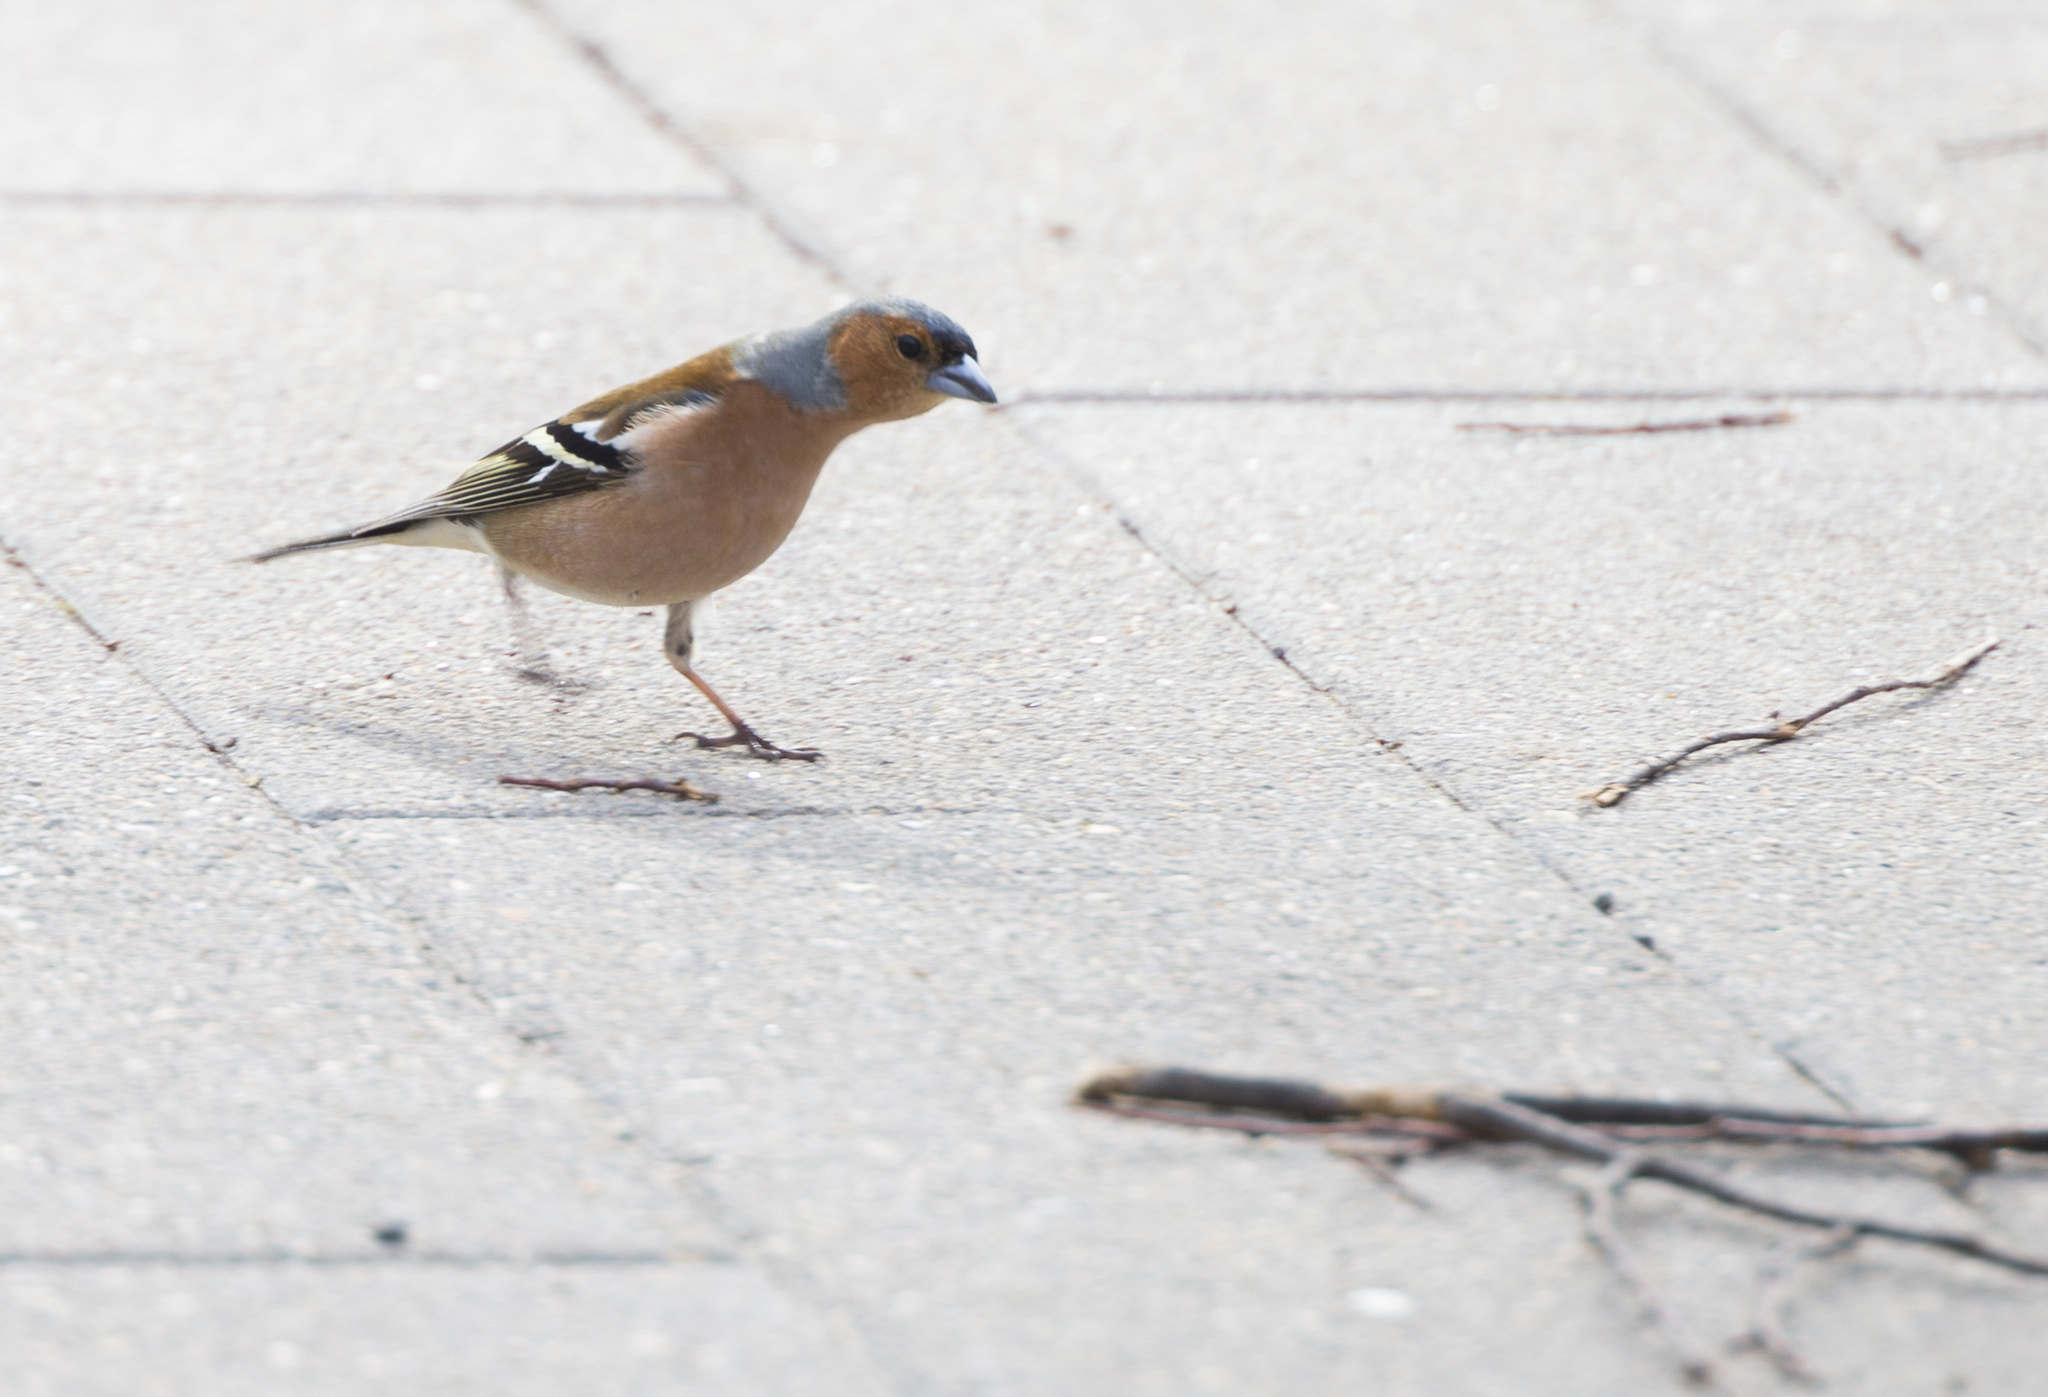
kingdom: Animalia
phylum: Chordata
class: Aves
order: Passeriformes
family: Fringillidae
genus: Fringilla
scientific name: Fringilla coelebs
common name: Common chaffinch
